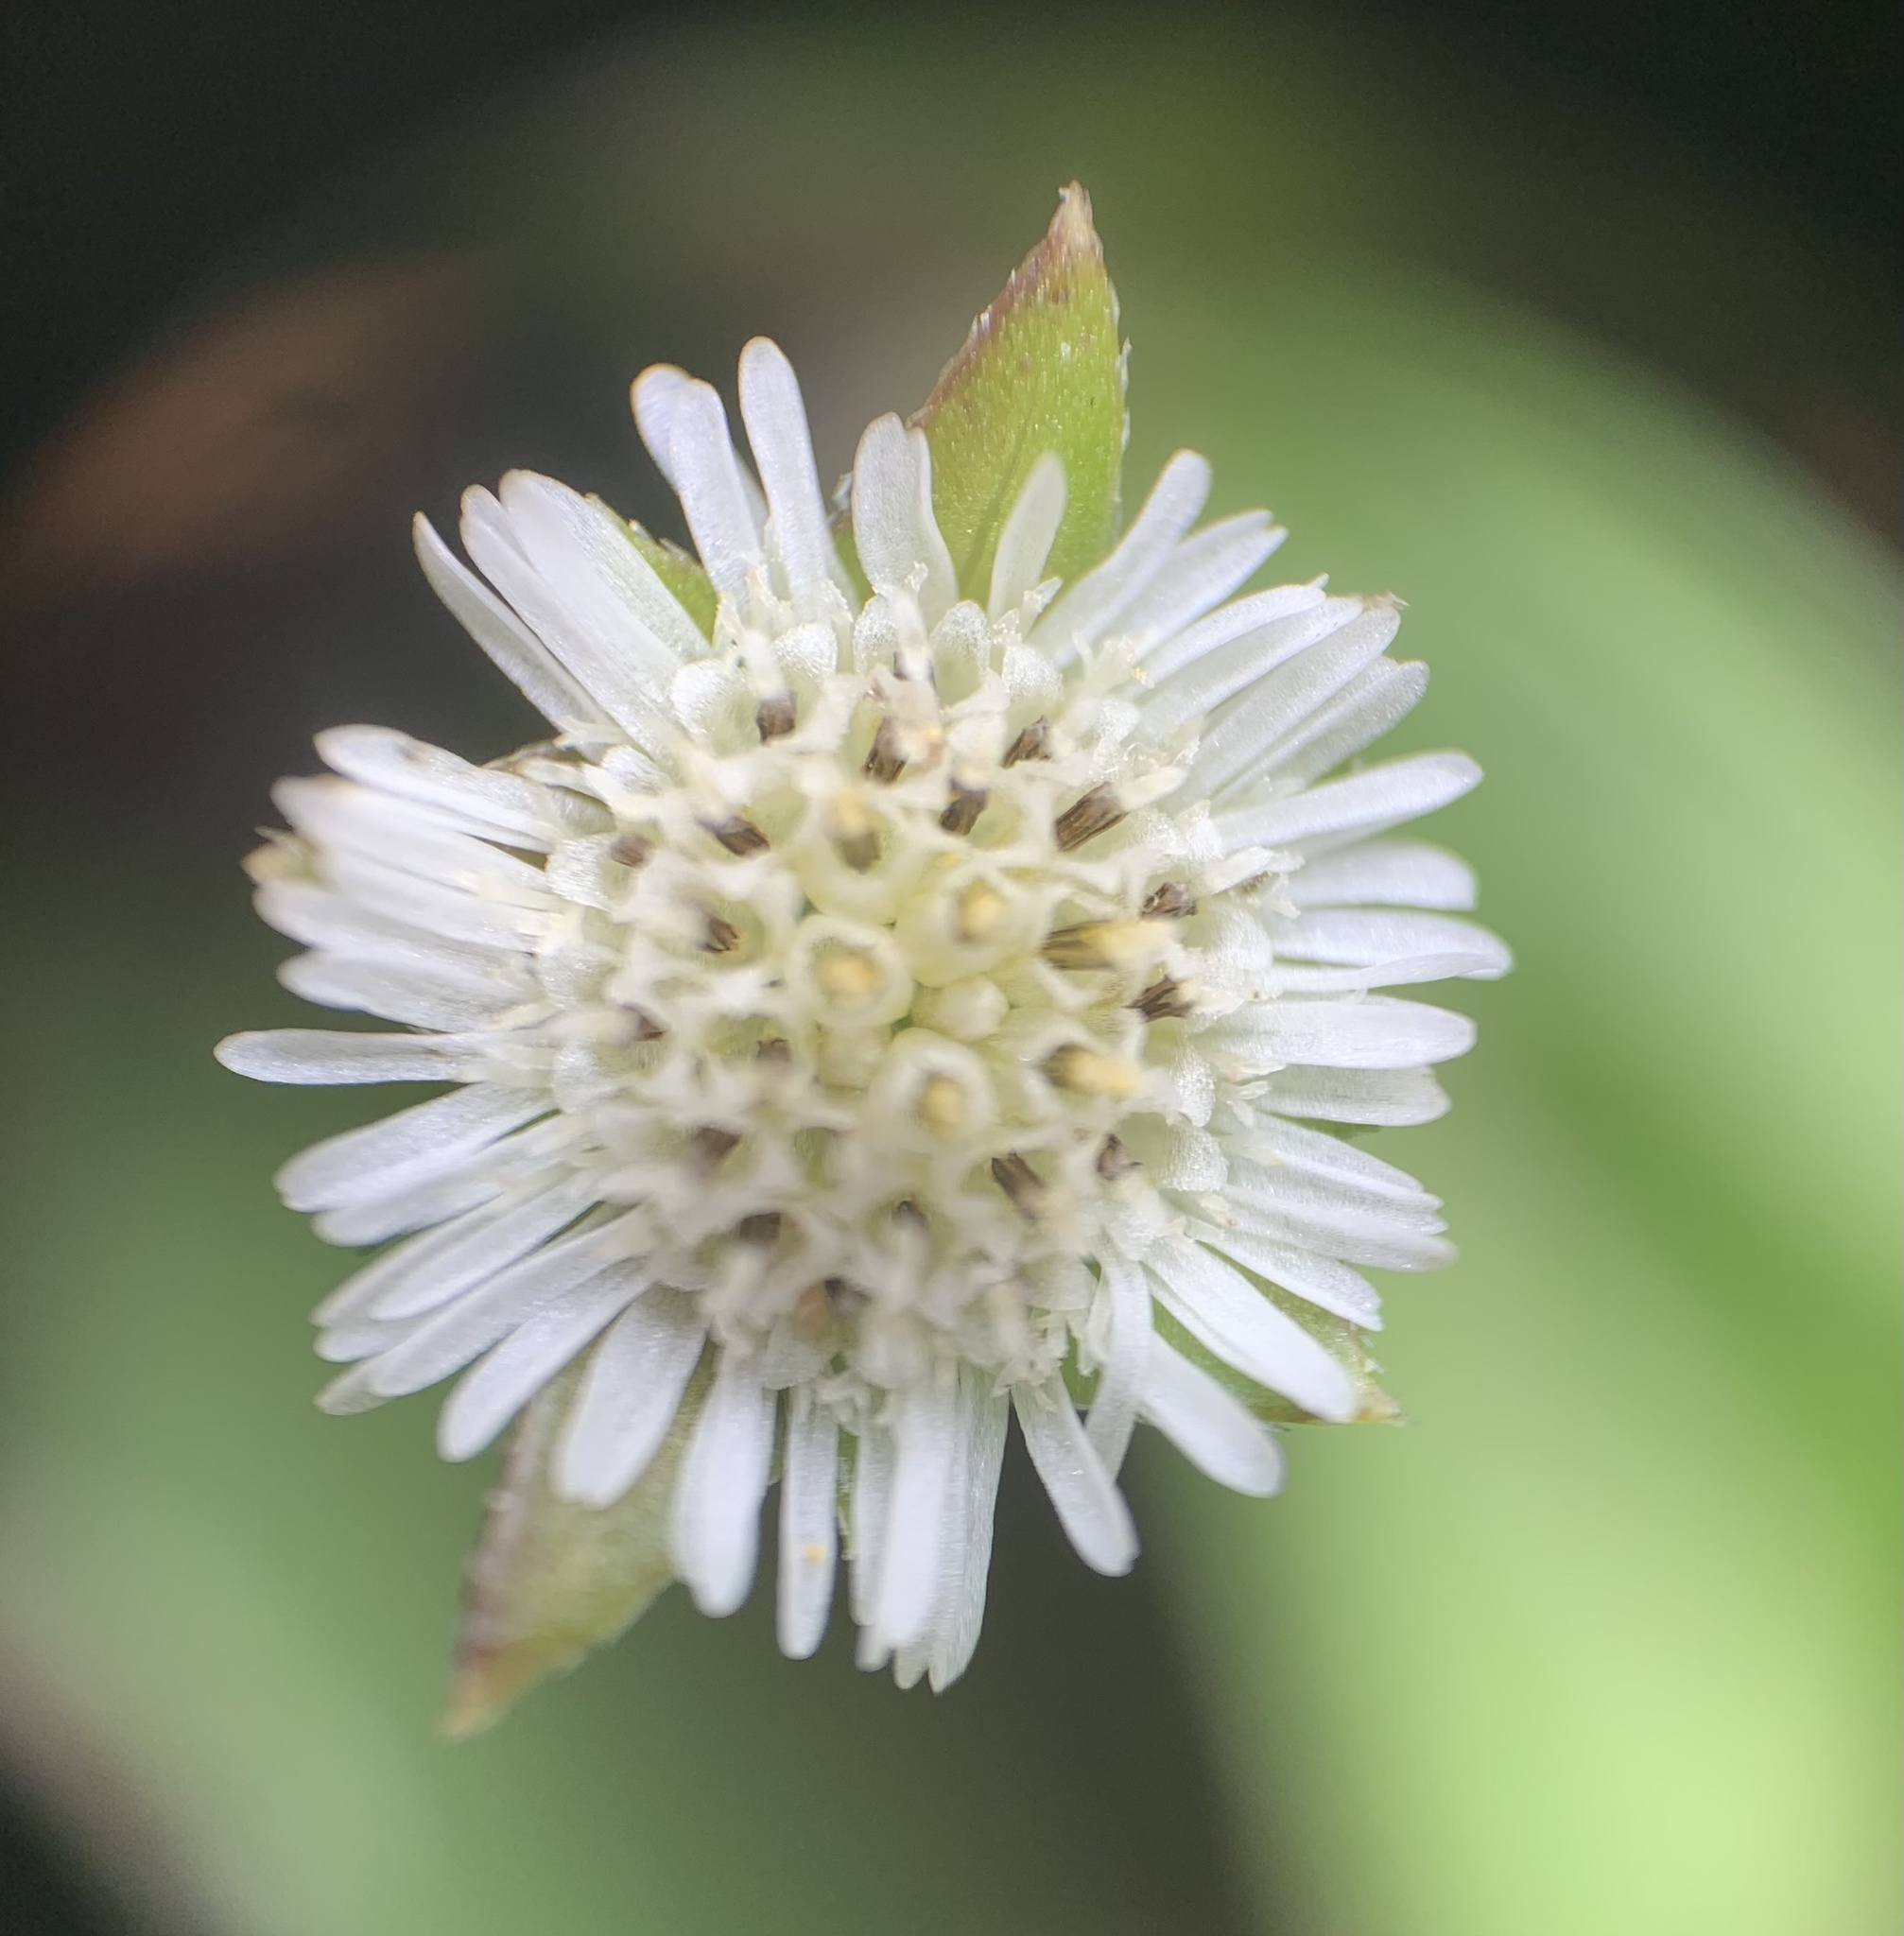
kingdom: Plantae
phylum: Tracheophyta
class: Magnoliopsida
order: Asterales
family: Asteraceae
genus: Eclipta
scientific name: Eclipta prostrata
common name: False daisy
